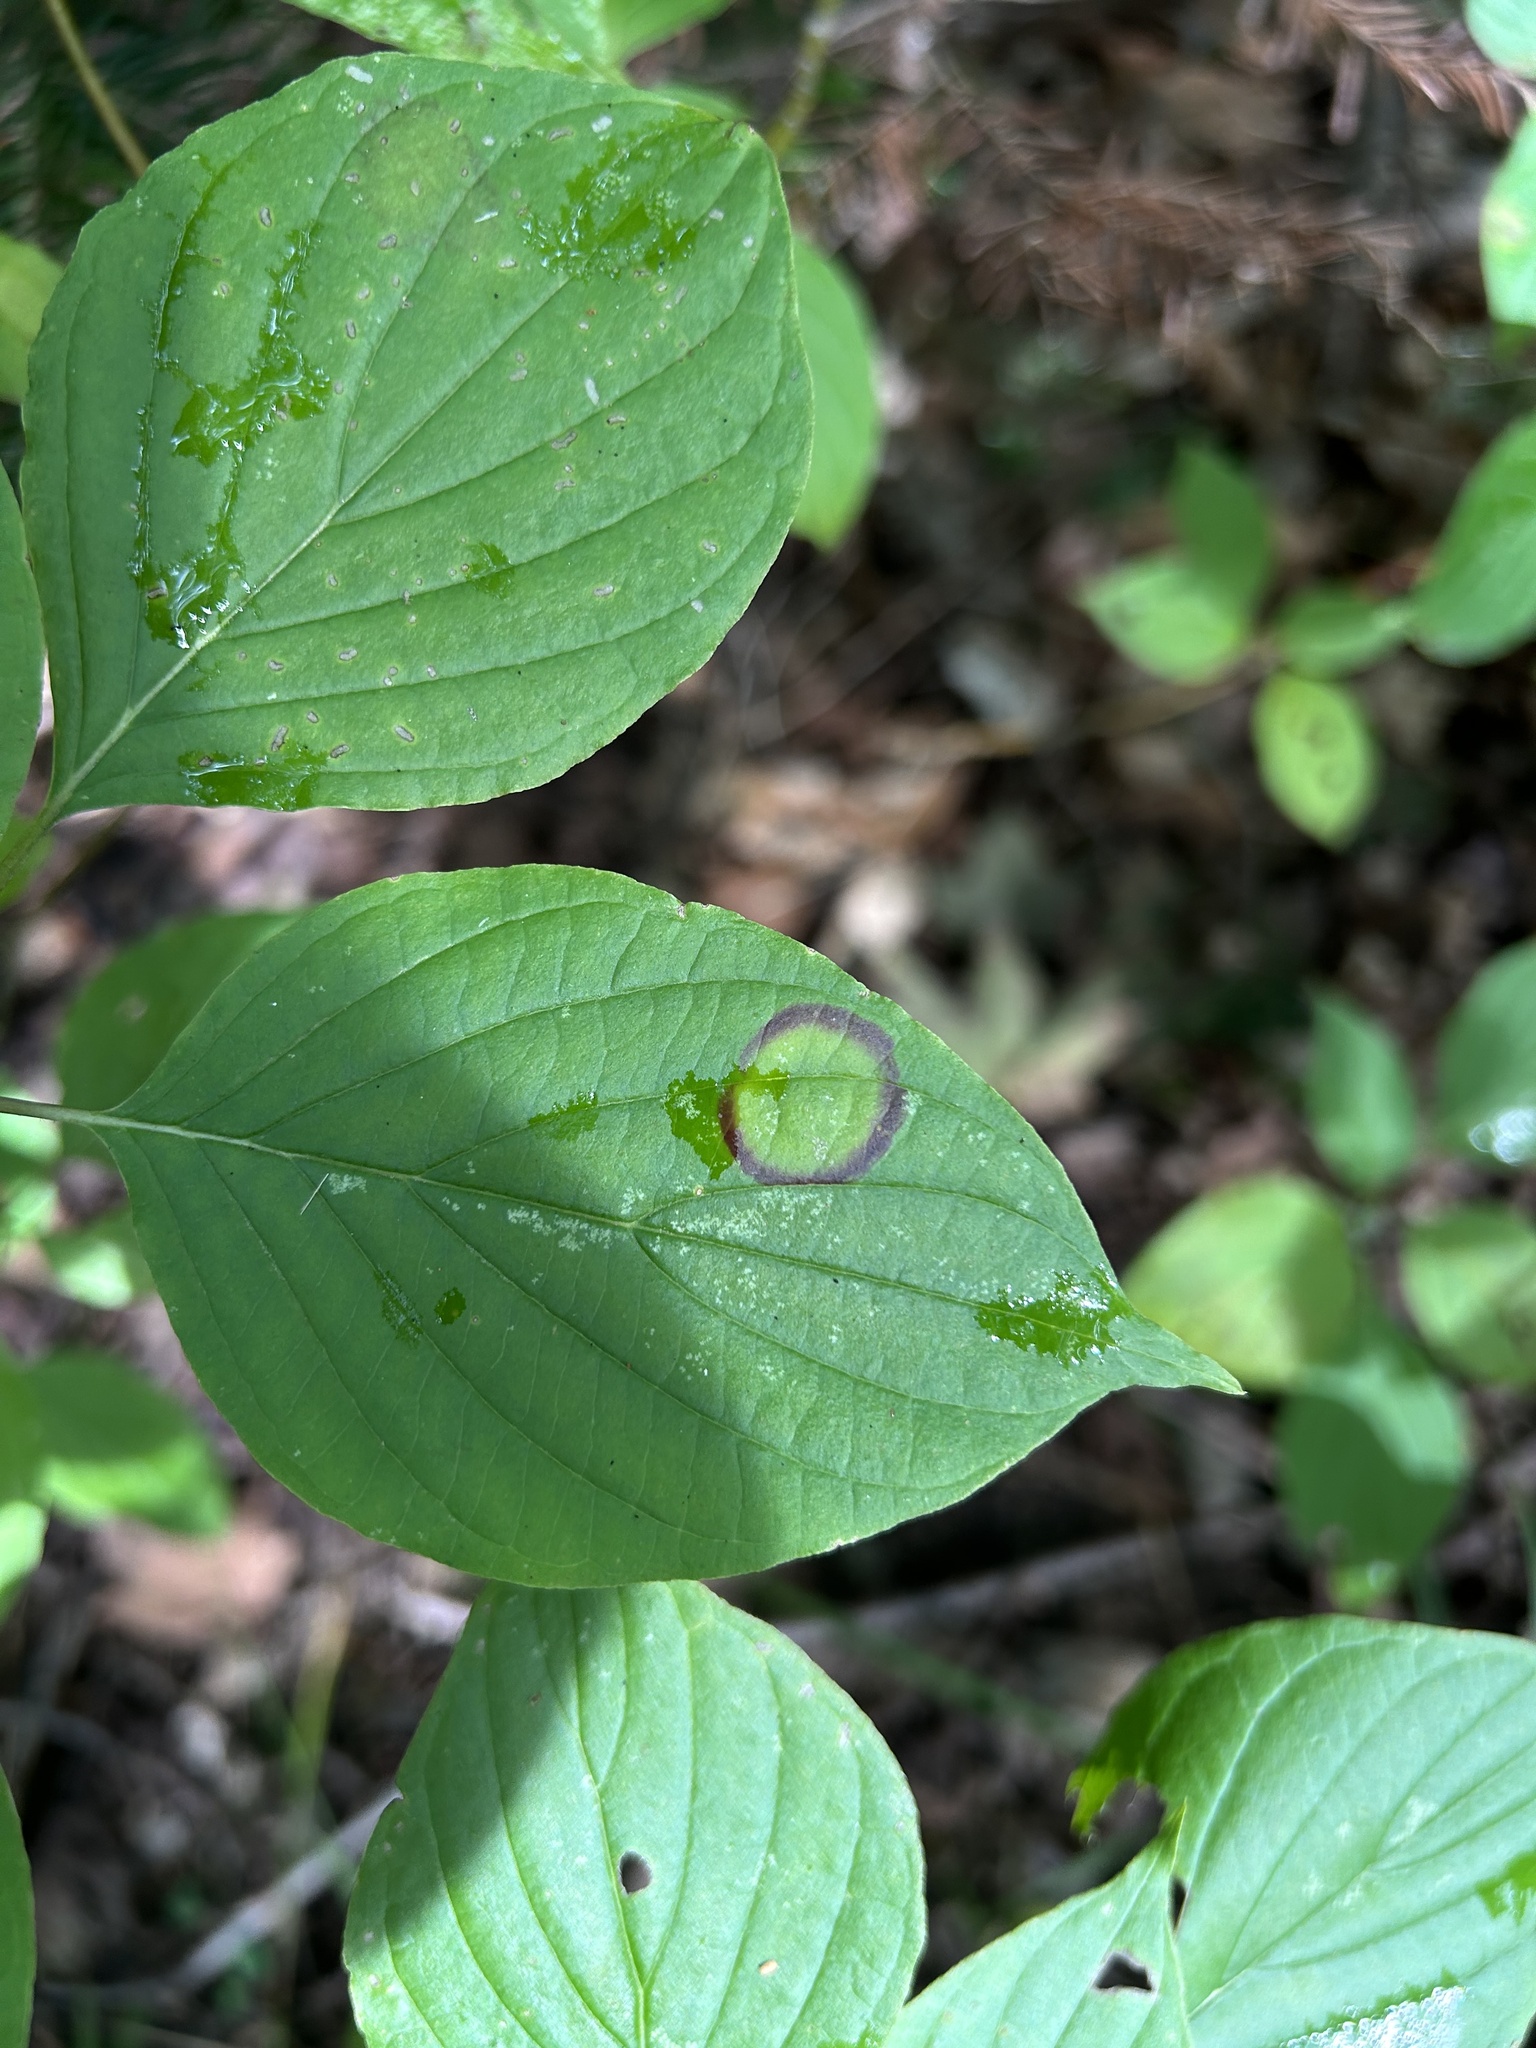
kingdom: Animalia
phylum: Arthropoda
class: Insecta
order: Diptera
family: Cecidomyiidae
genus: Parallelodiplosis
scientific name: Parallelodiplosis subtruncata
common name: Dogwood eyespot gall midge
